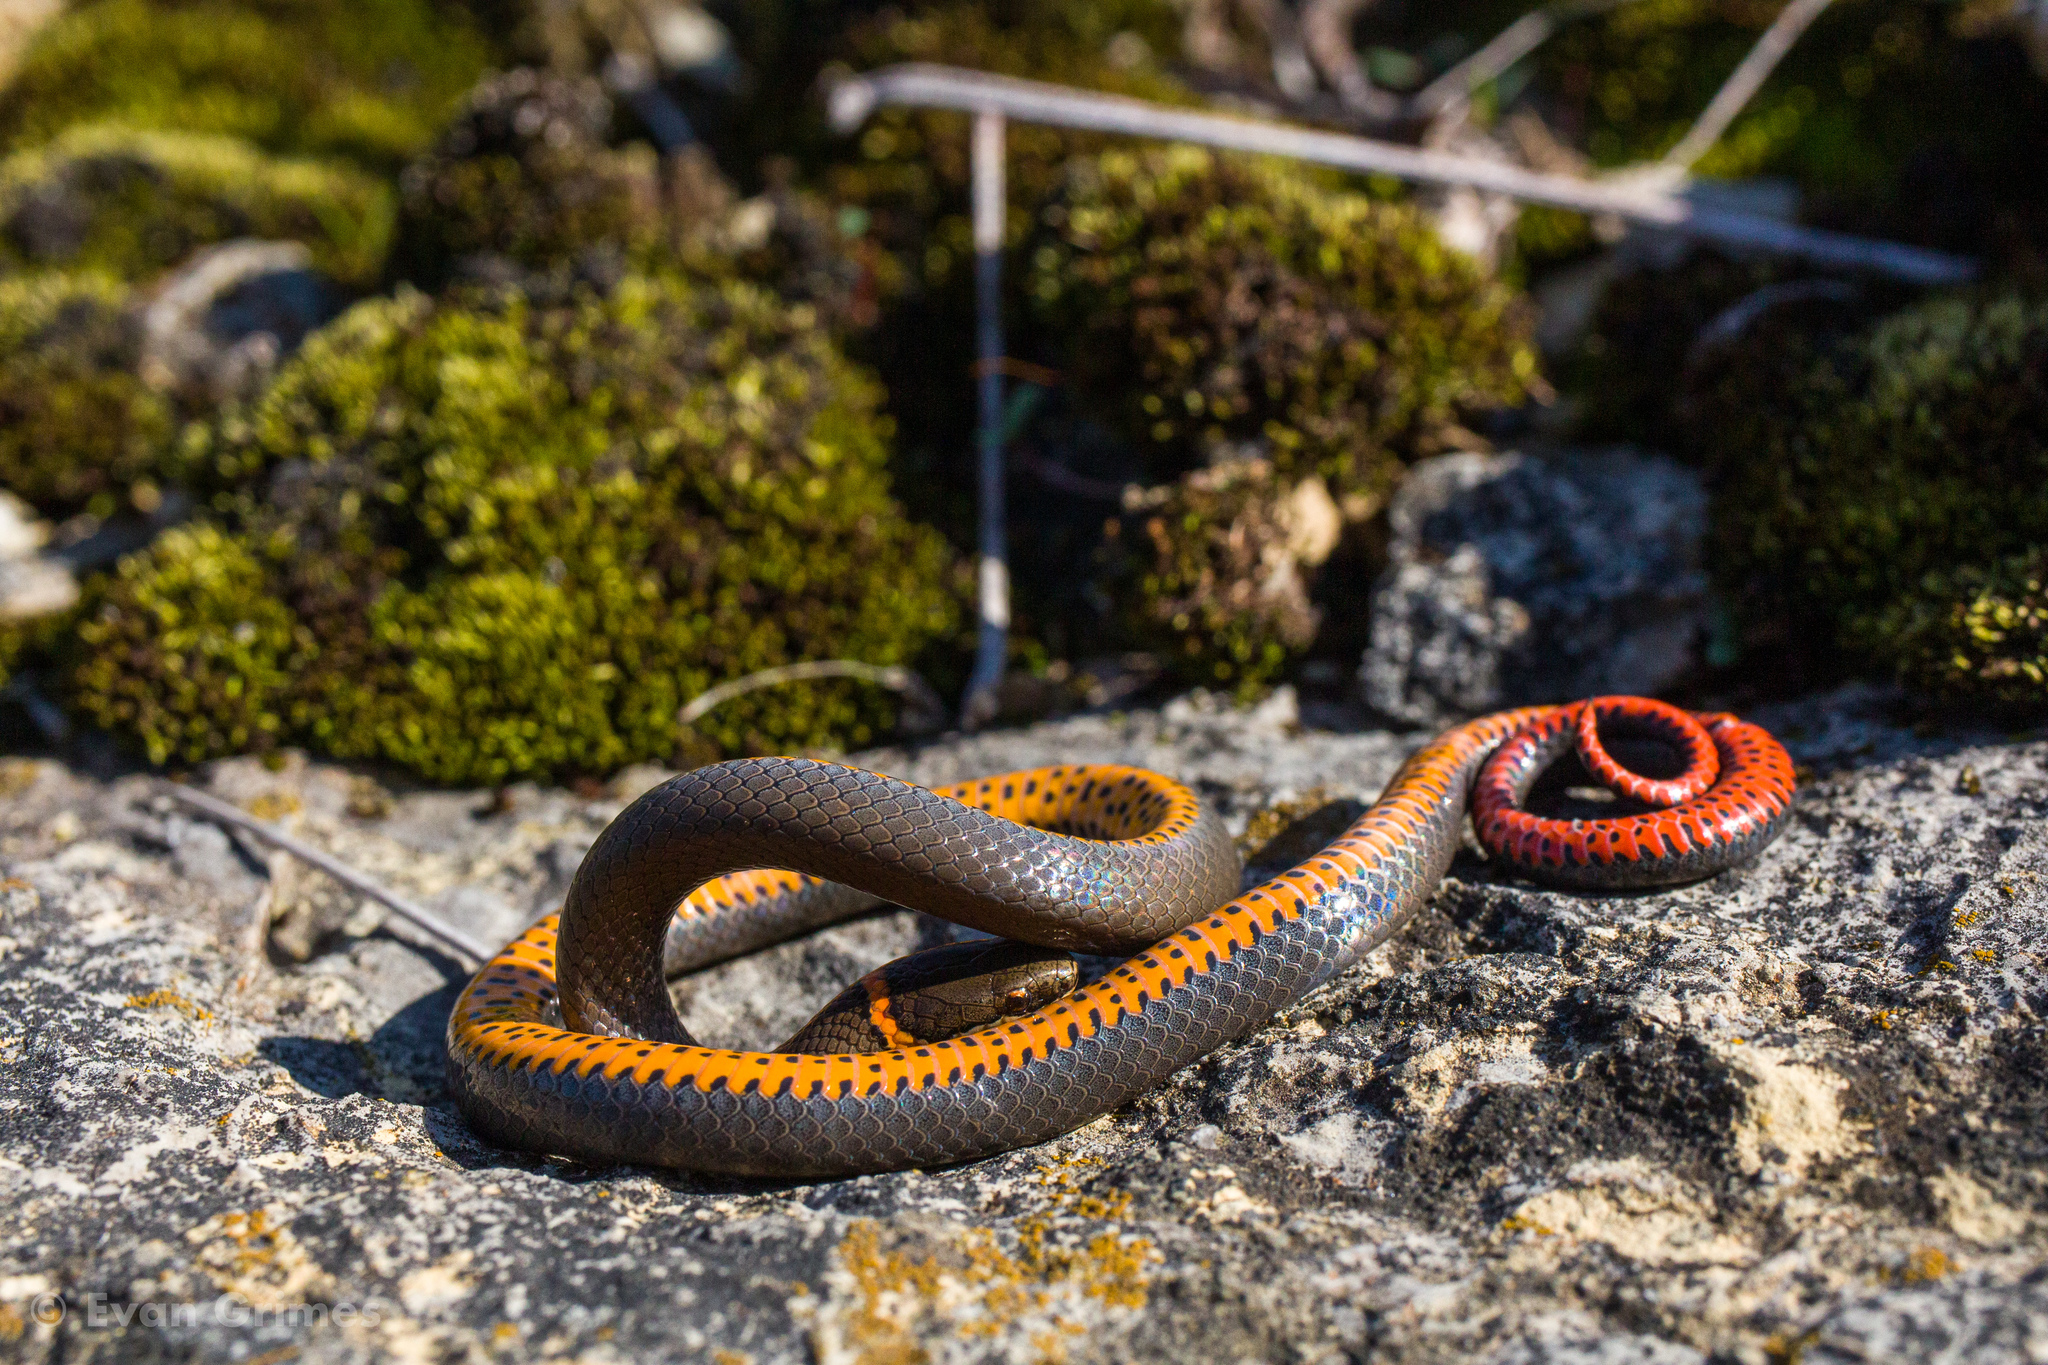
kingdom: Animalia
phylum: Chordata
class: Squamata
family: Colubridae
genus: Diadophis
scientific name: Diadophis punctatus
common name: Ringneck snake
